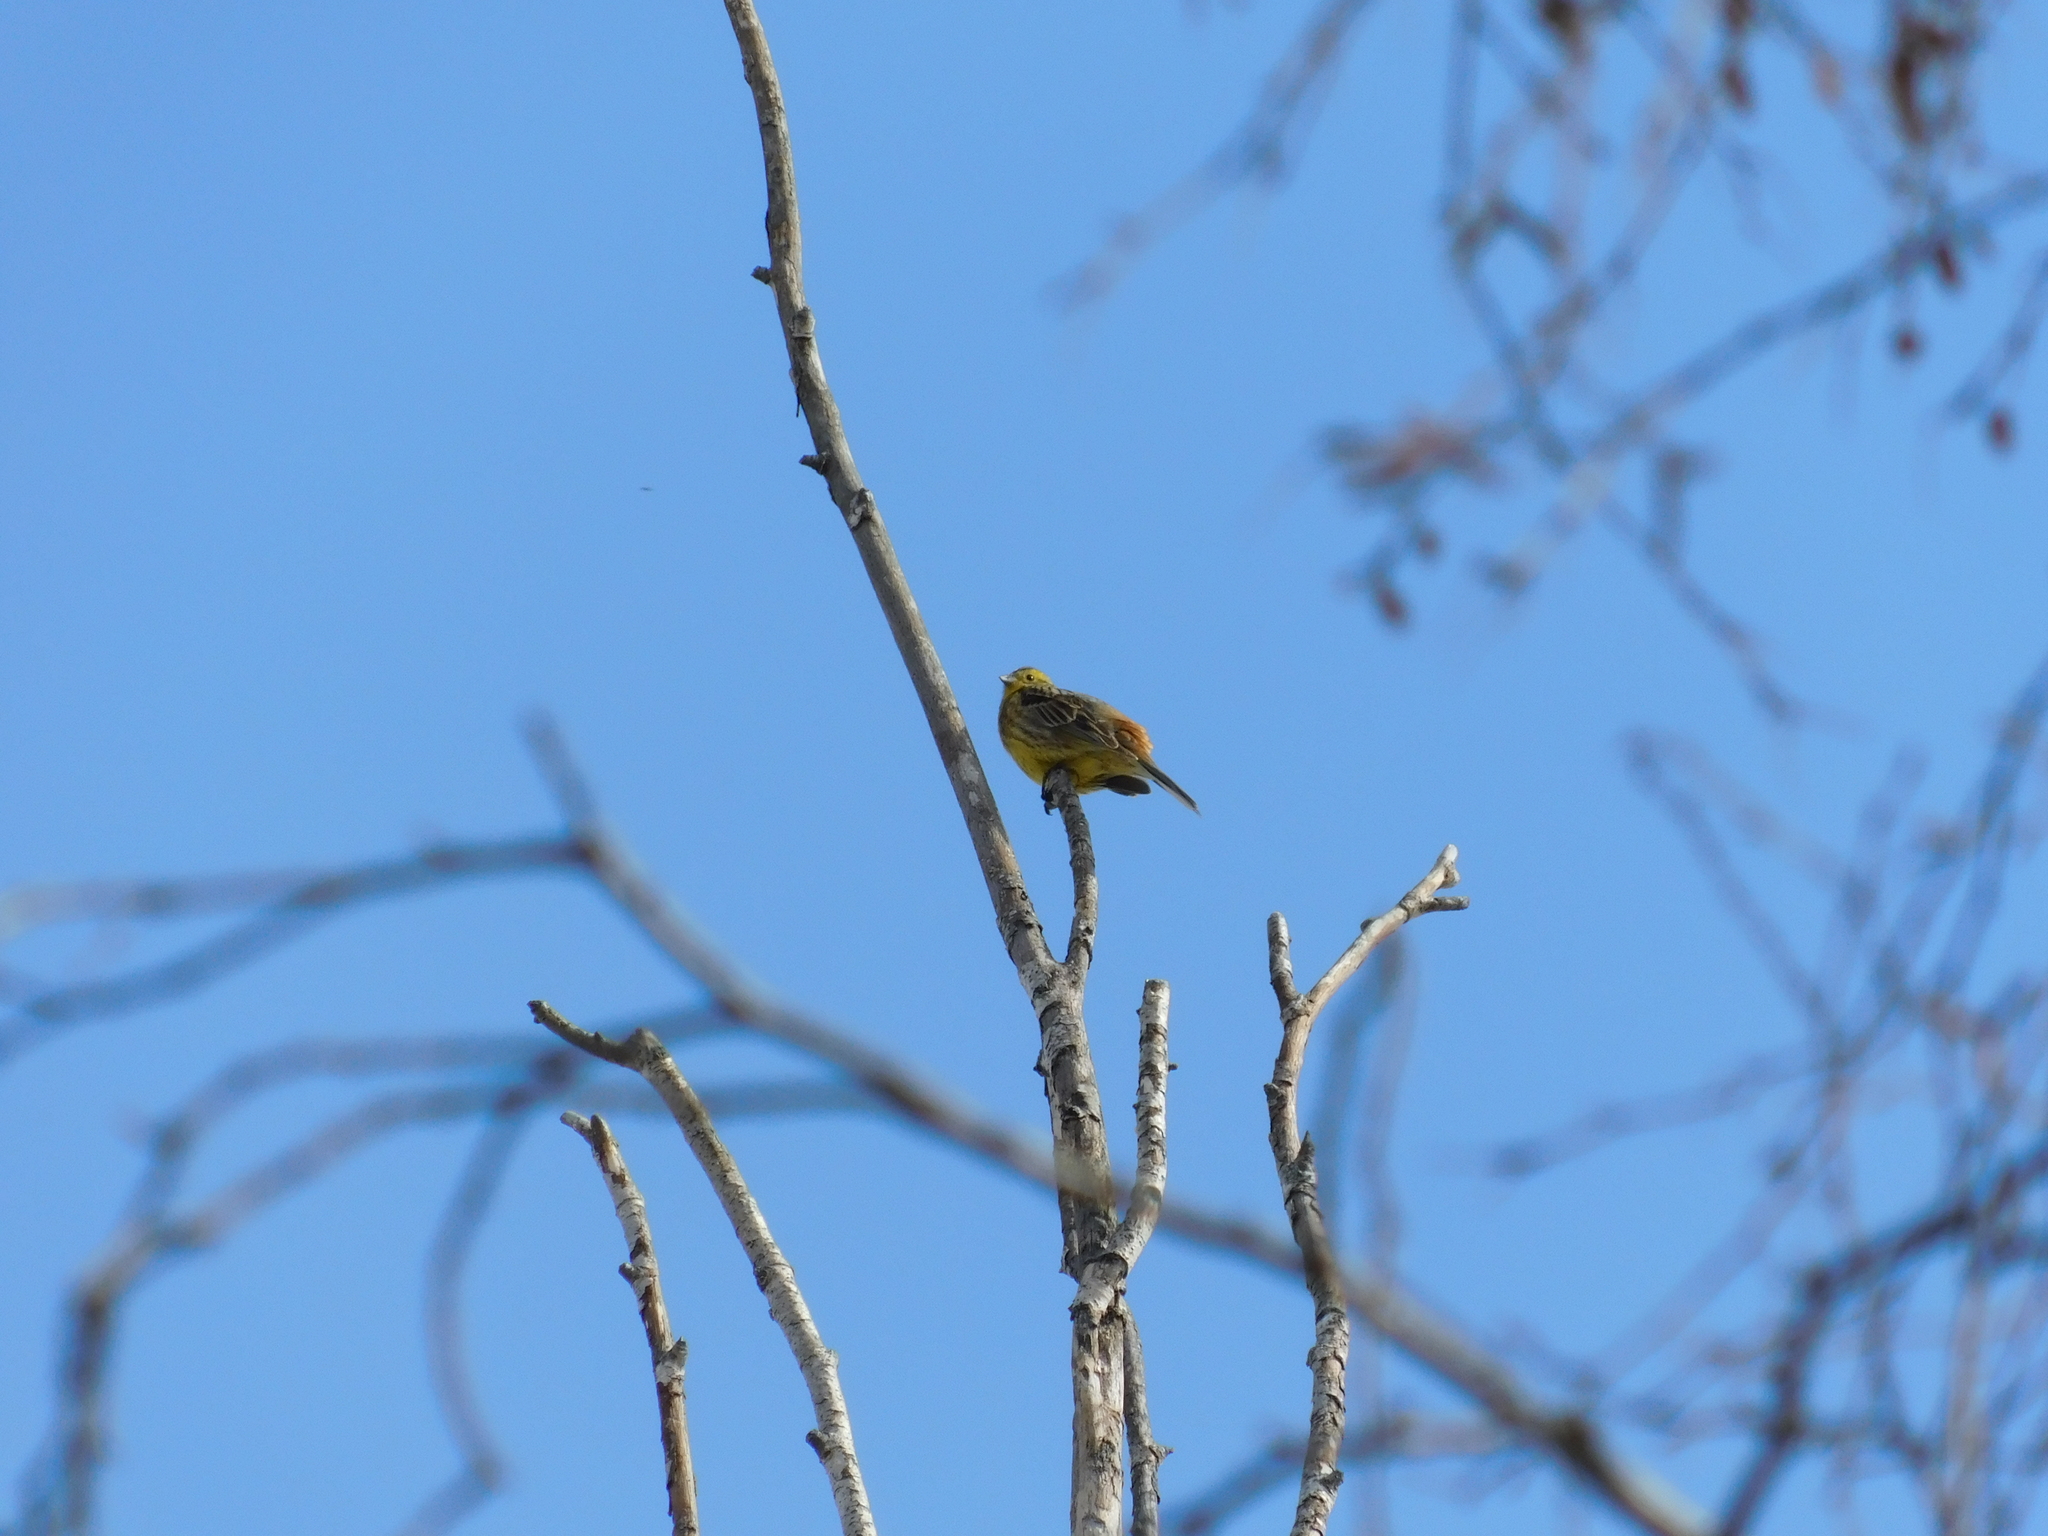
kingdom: Animalia
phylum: Chordata
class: Aves
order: Passeriformes
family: Emberizidae
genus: Emberiza
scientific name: Emberiza citrinella
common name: Yellowhammer
